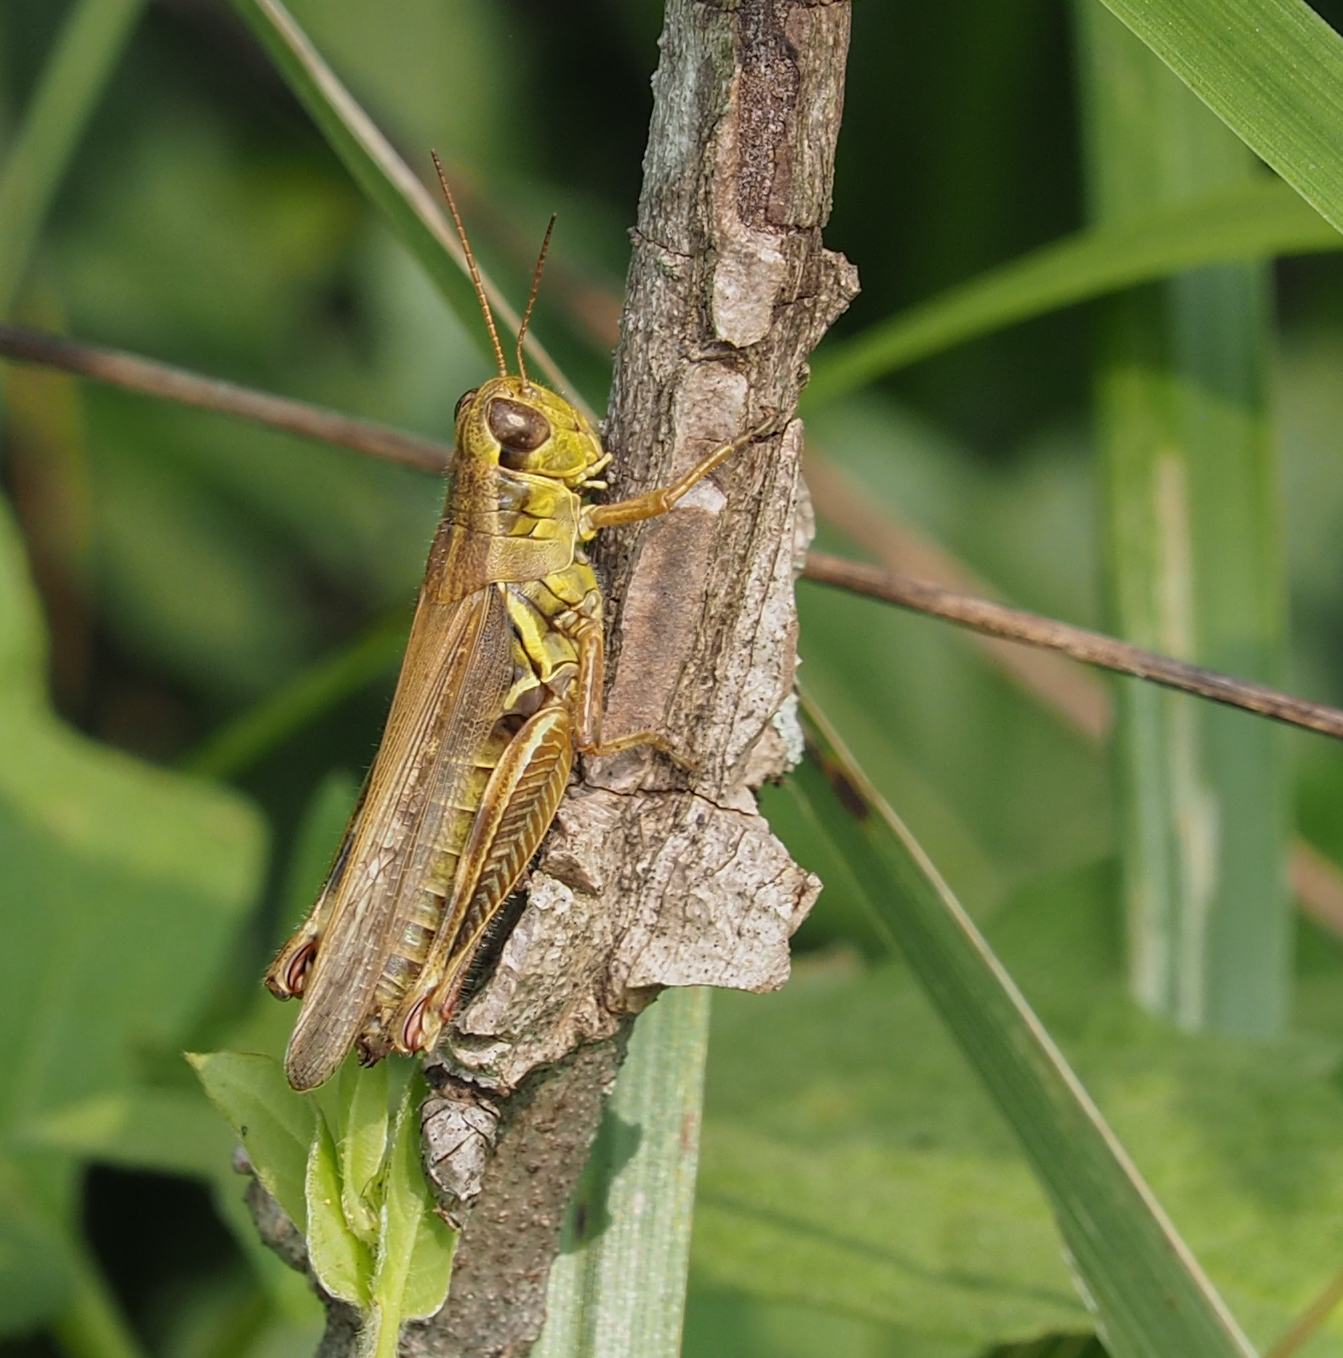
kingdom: Animalia
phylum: Arthropoda
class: Insecta
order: Orthoptera
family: Acrididae
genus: Melanoplus
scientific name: Melanoplus femurrubrum
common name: Red-legged grasshopper
